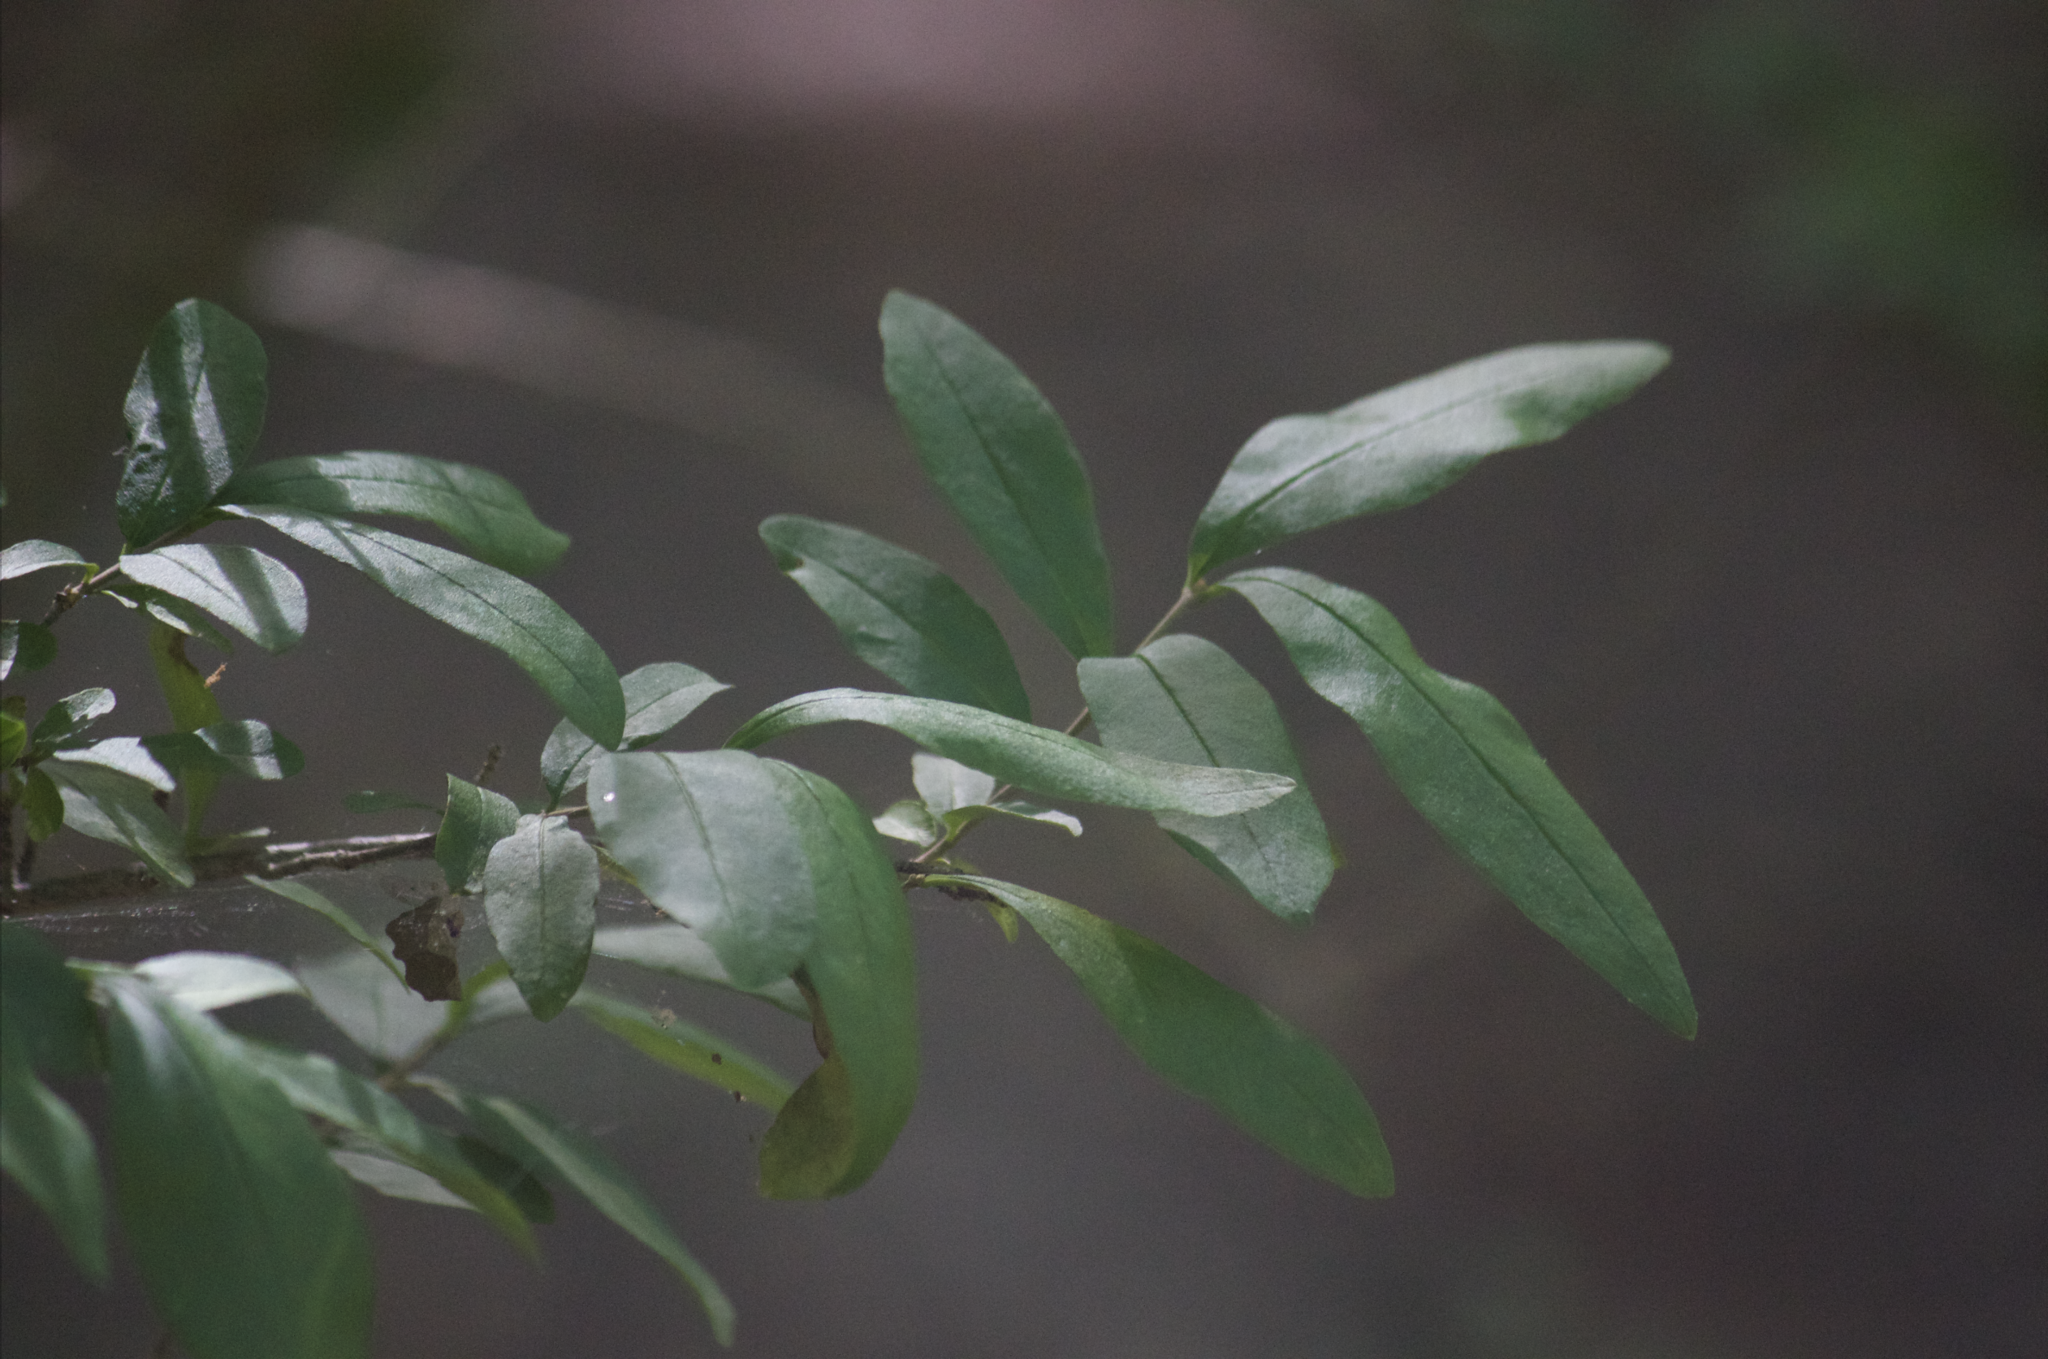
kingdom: Plantae
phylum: Tracheophyta
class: Magnoliopsida
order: Lamiales
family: Oleaceae
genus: Ligustrum
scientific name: Ligustrum obtusifolium
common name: Border privet
